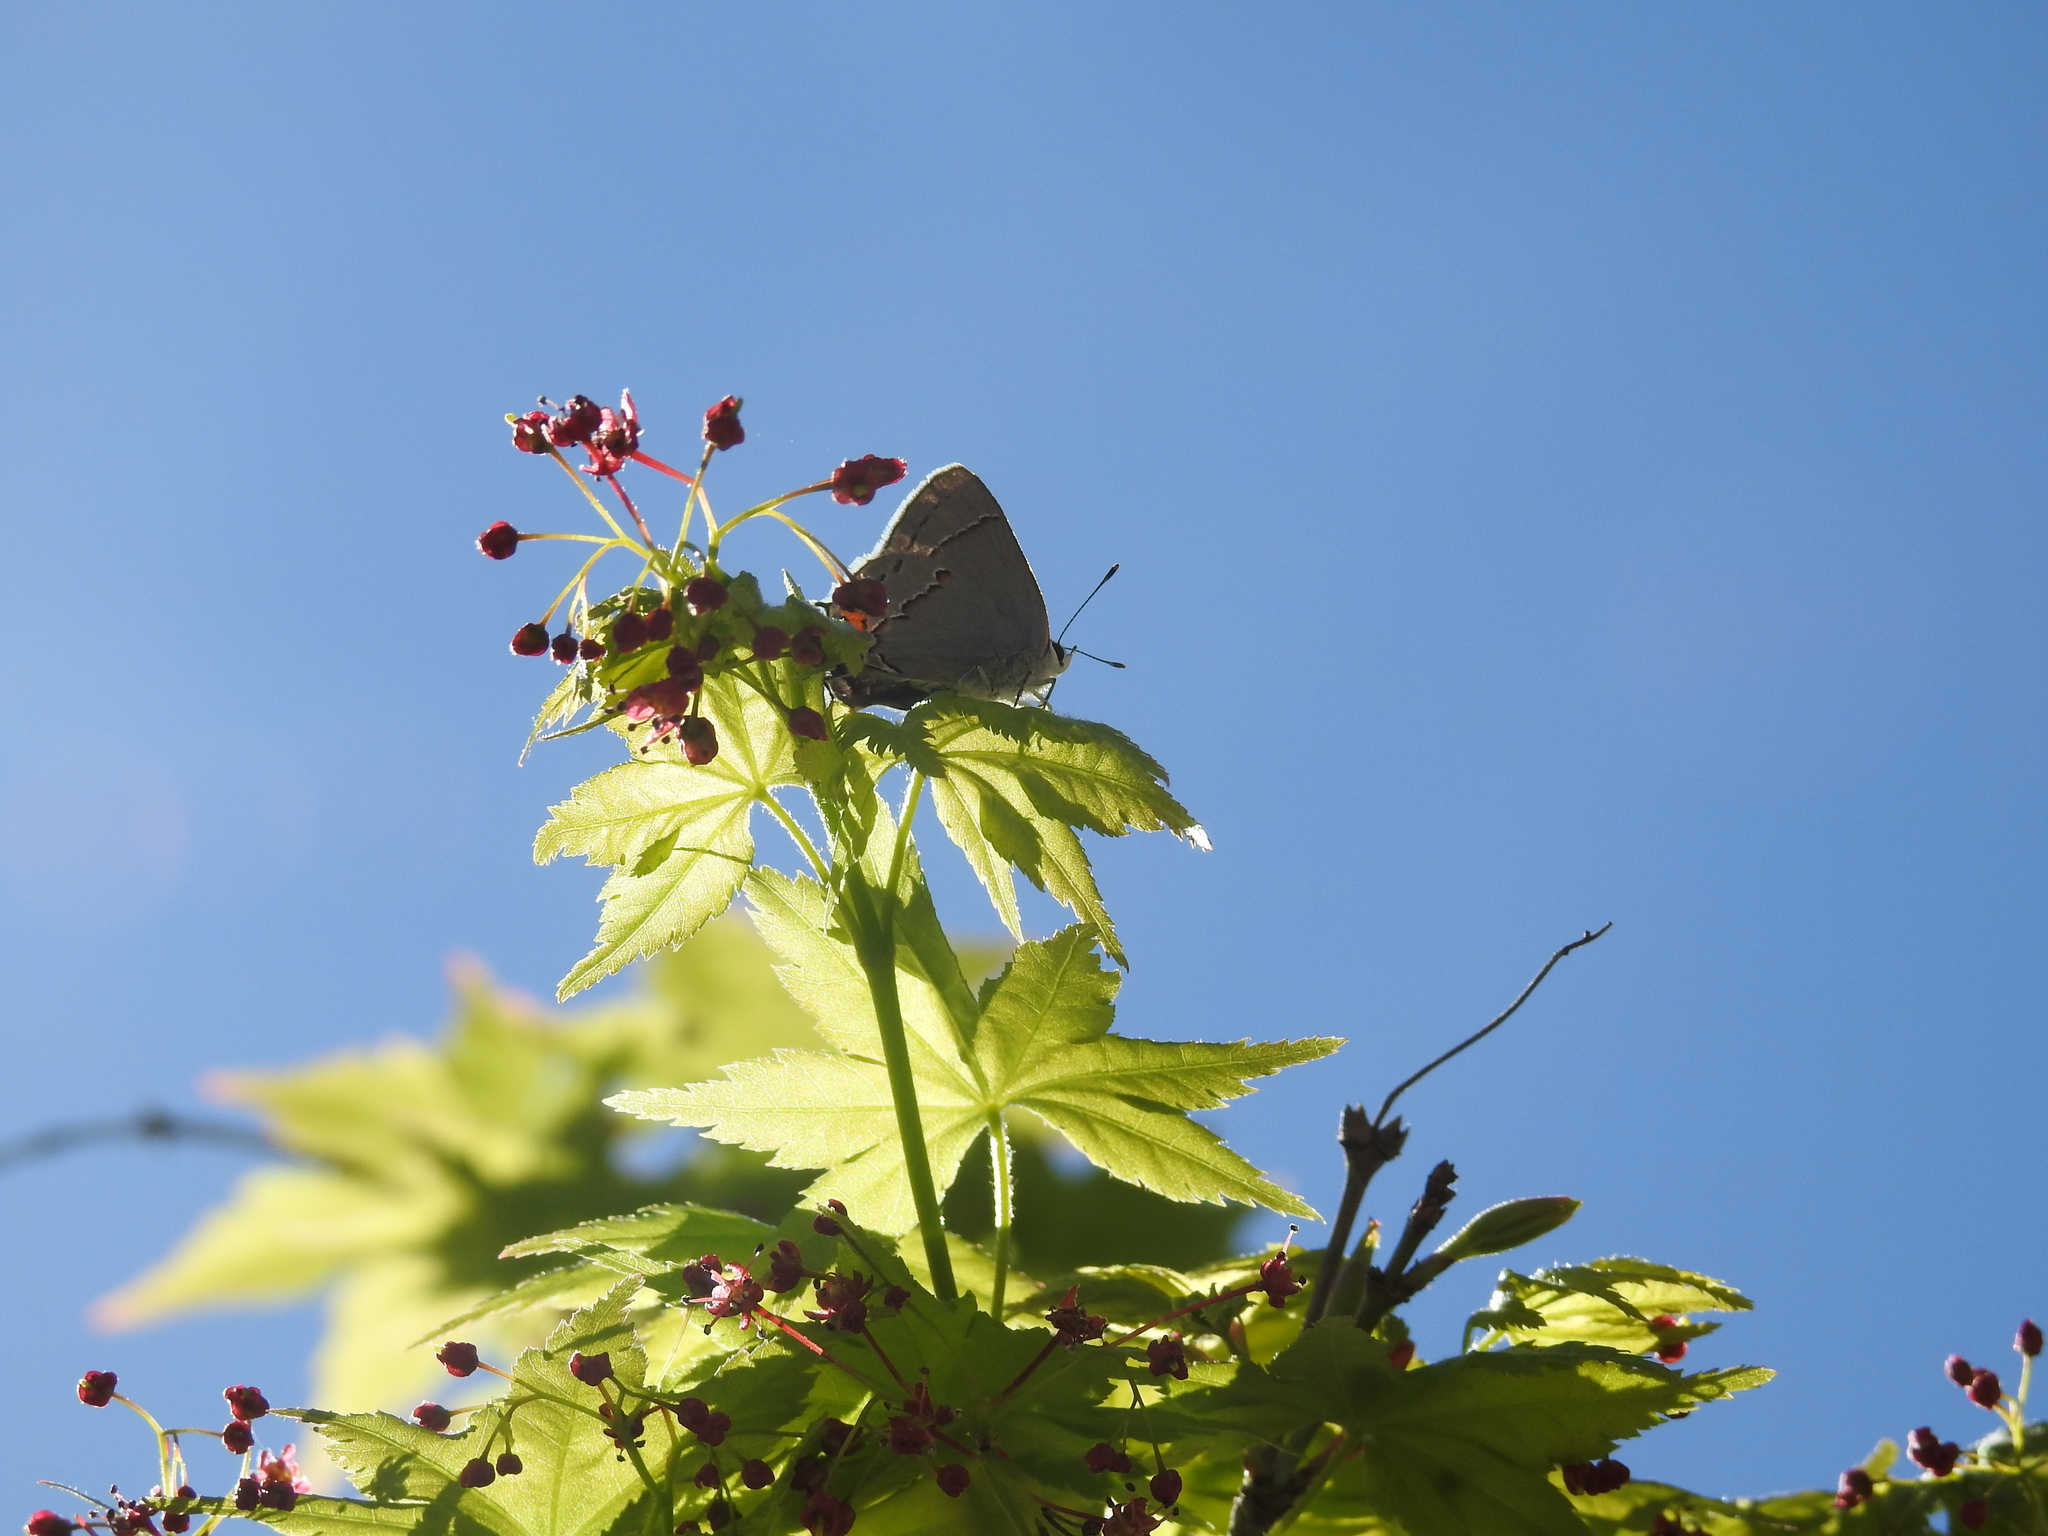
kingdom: Animalia
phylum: Arthropoda
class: Insecta
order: Lepidoptera
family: Lycaenidae
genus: Strymon
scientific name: Strymon melinus
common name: Gray hairstreak
